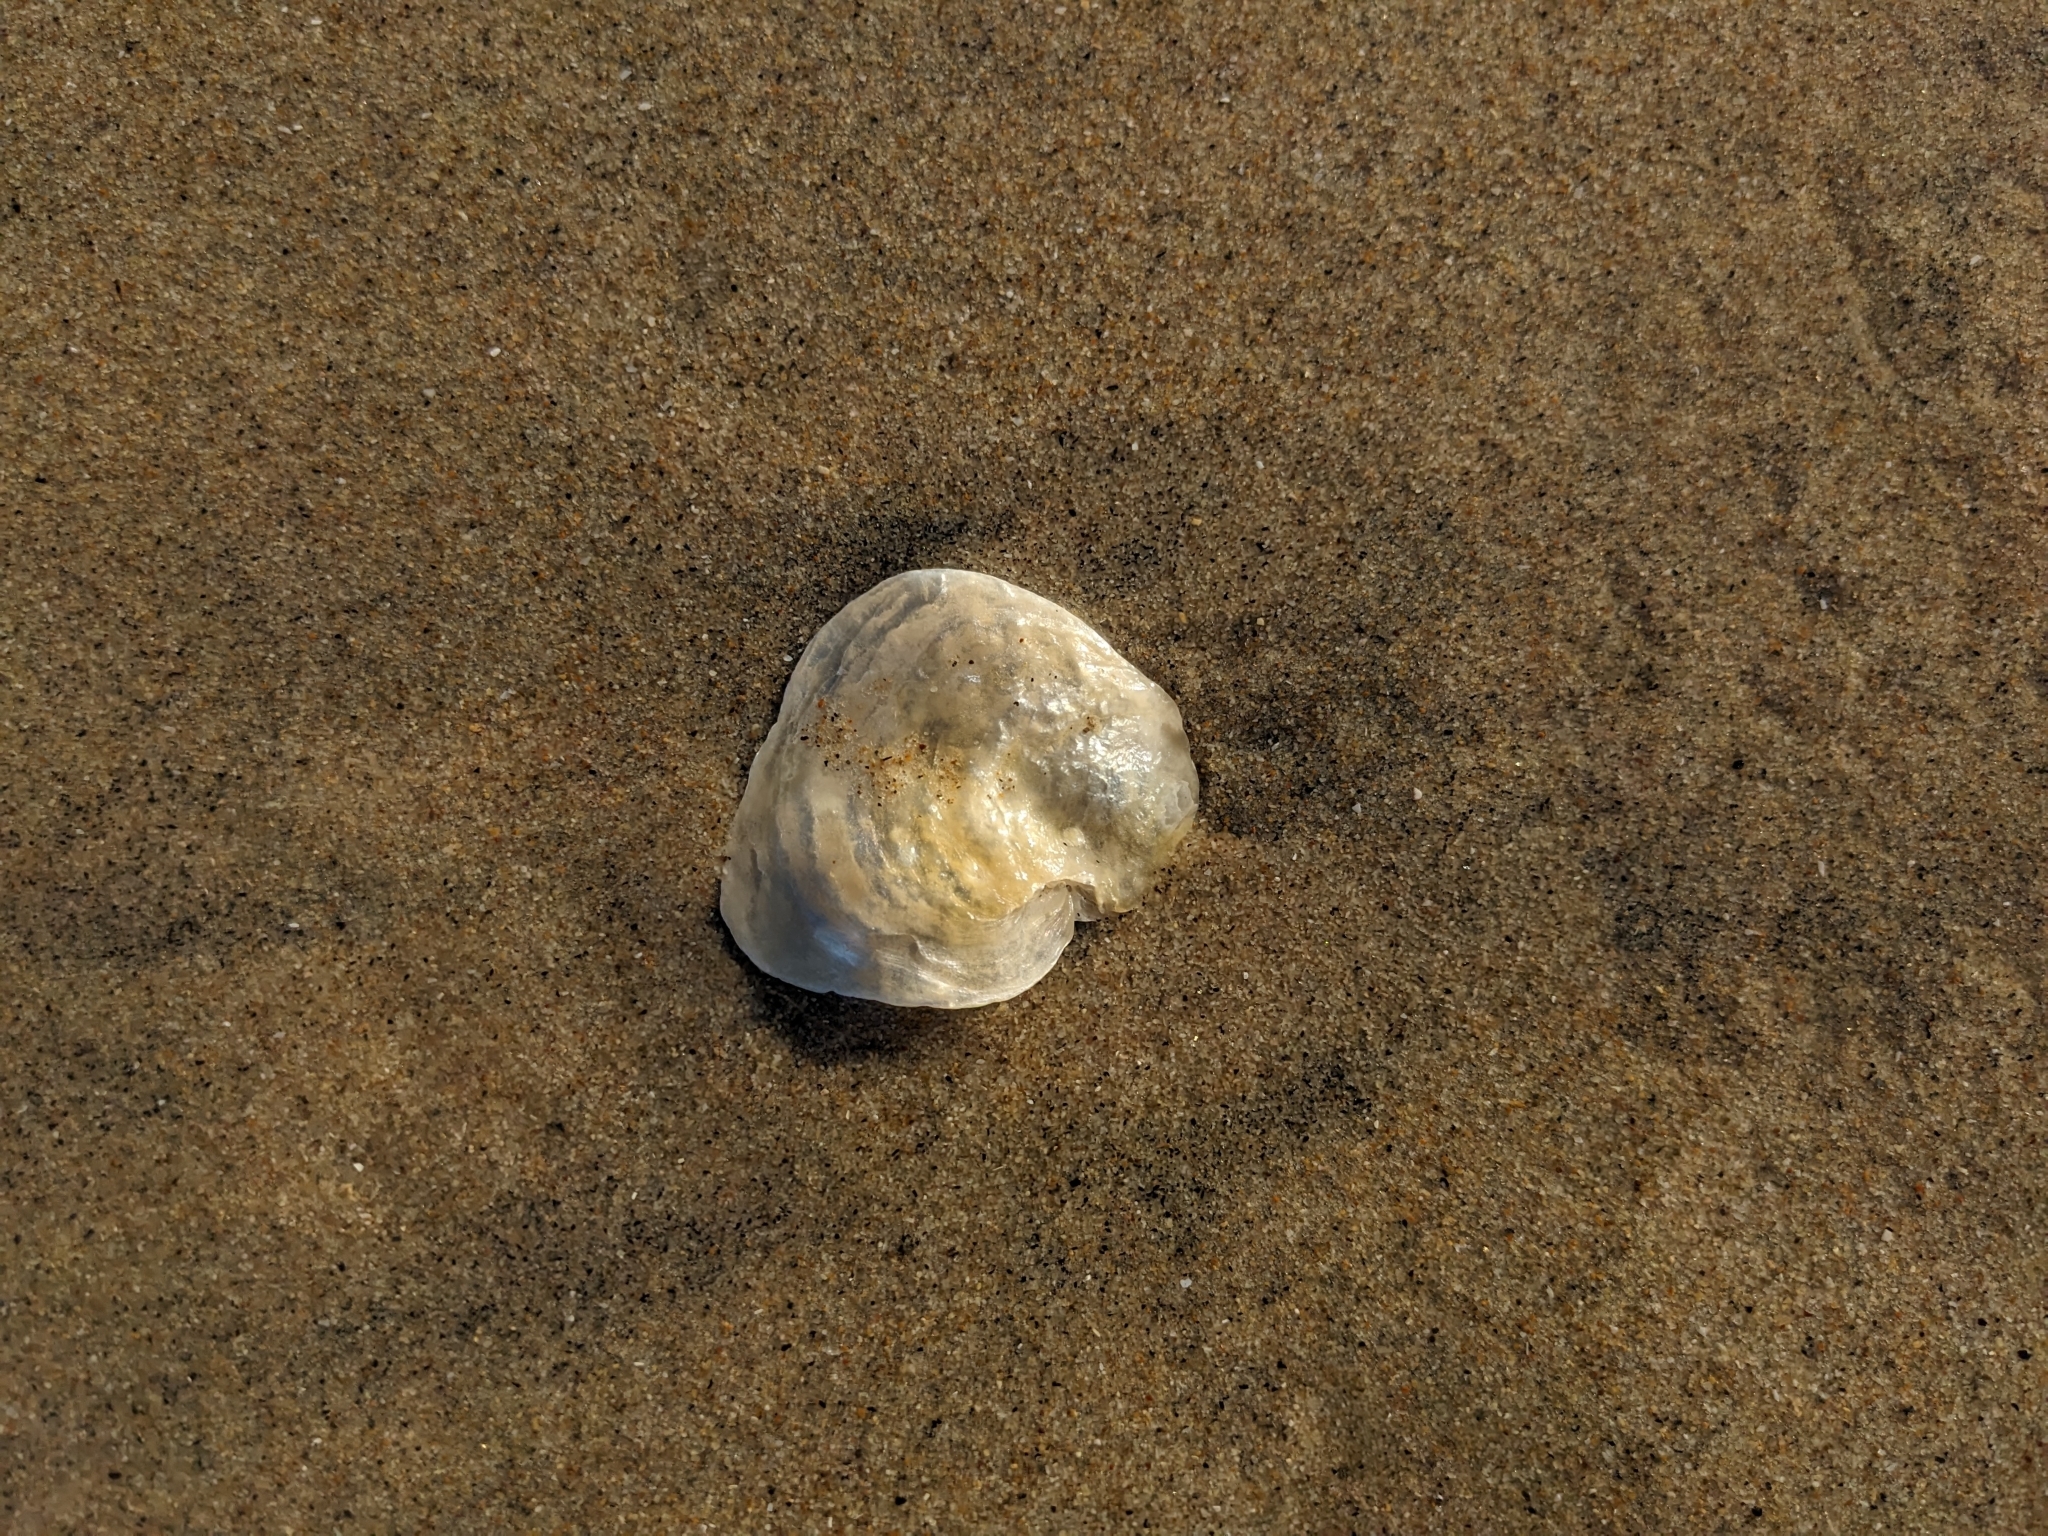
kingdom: Animalia
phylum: Mollusca
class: Bivalvia
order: Pectinida
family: Anomiidae
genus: Anomia
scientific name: Anomia peruviana
